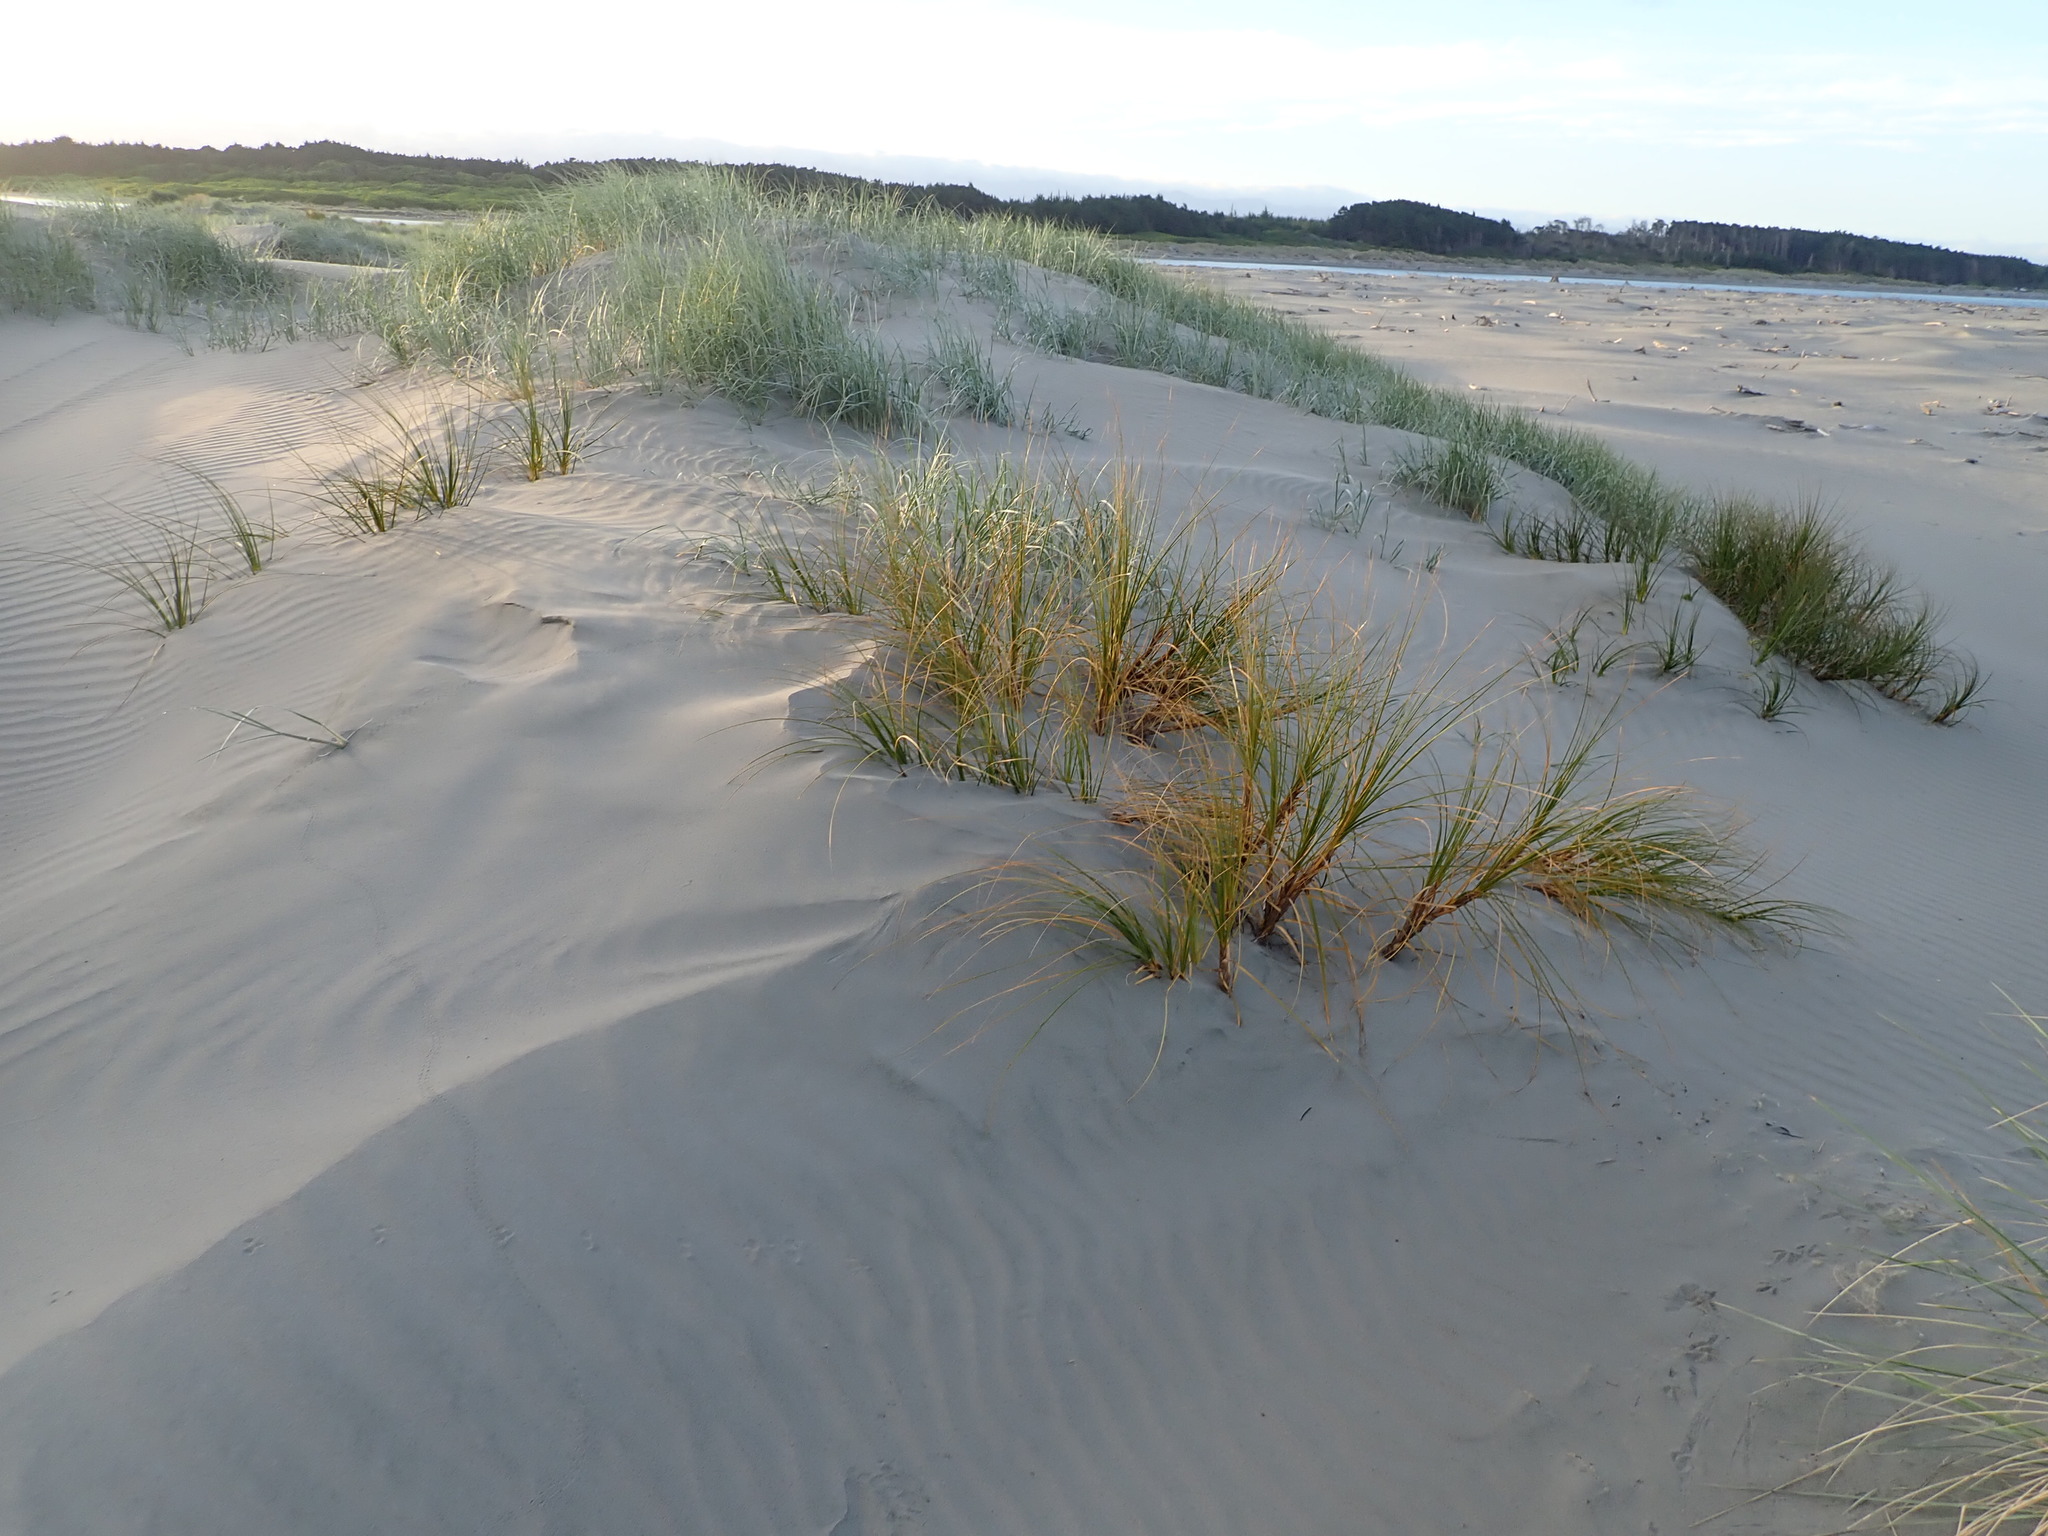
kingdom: Plantae
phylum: Tracheophyta
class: Liliopsida
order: Poales
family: Cyperaceae
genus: Ficinia
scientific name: Ficinia spiralis
